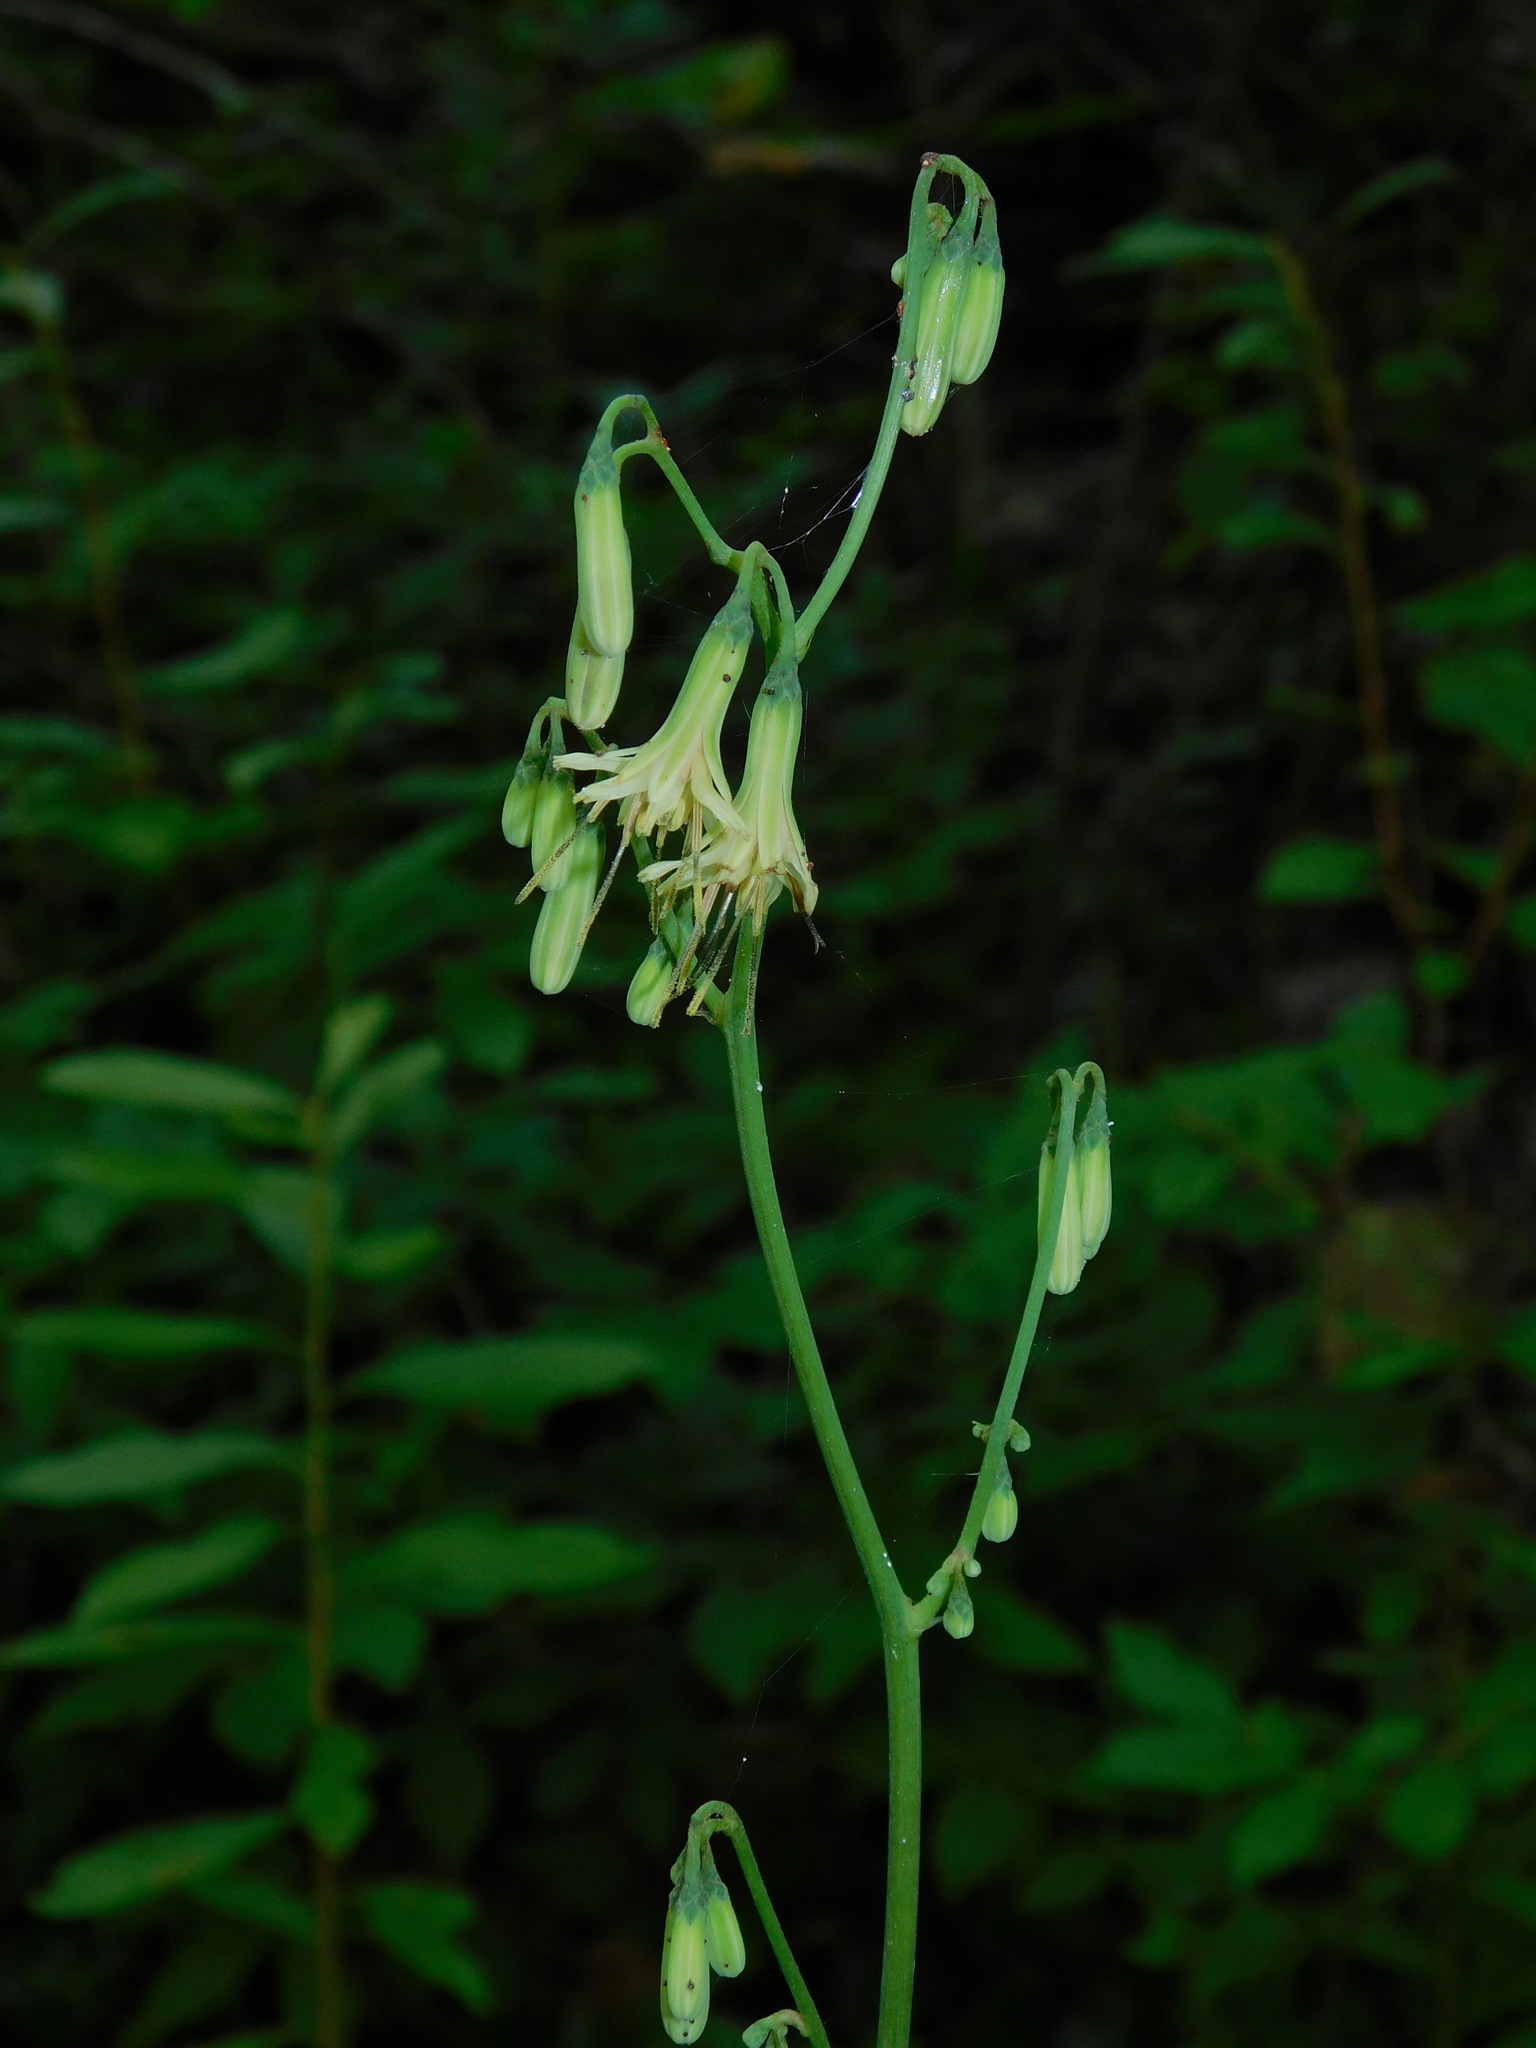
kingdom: Plantae
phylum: Tracheophyta
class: Magnoliopsida
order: Asterales
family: Asteraceae
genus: Nabalus
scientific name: Nabalus trifoliolatus
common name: Gall-of-the-earth
